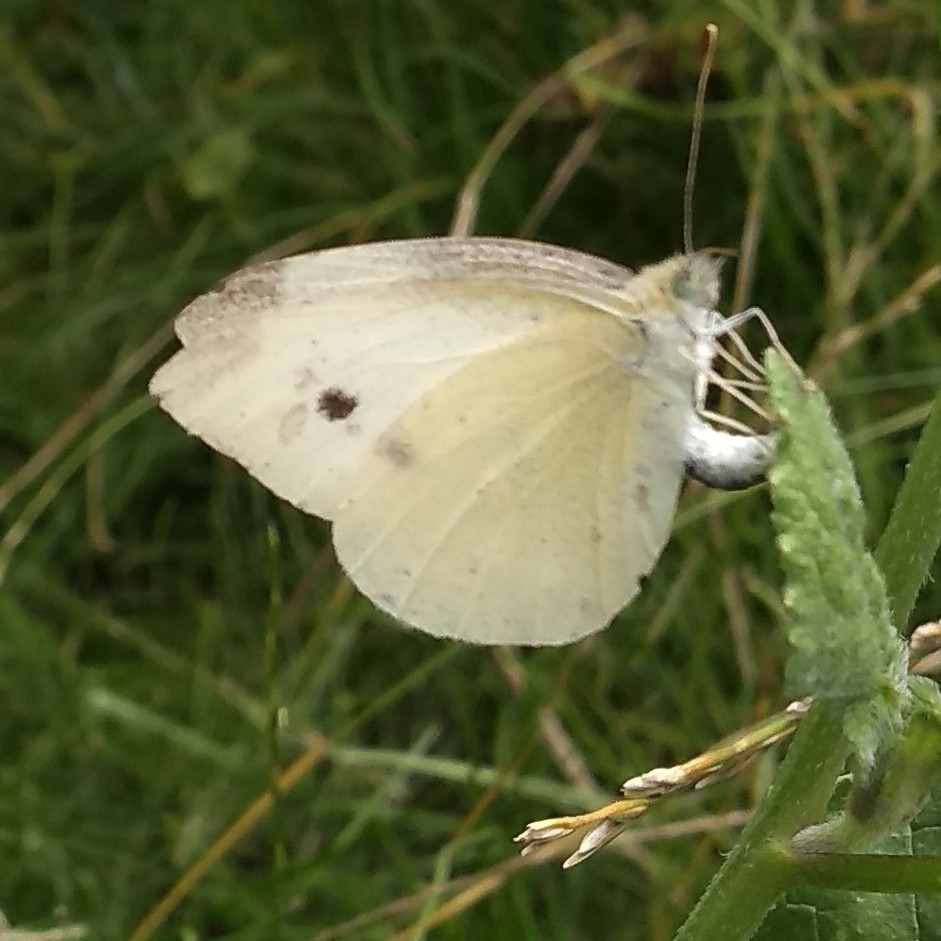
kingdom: Animalia
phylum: Arthropoda
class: Insecta
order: Lepidoptera
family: Pieridae
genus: Pieris
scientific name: Pieris rapae
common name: Small white
